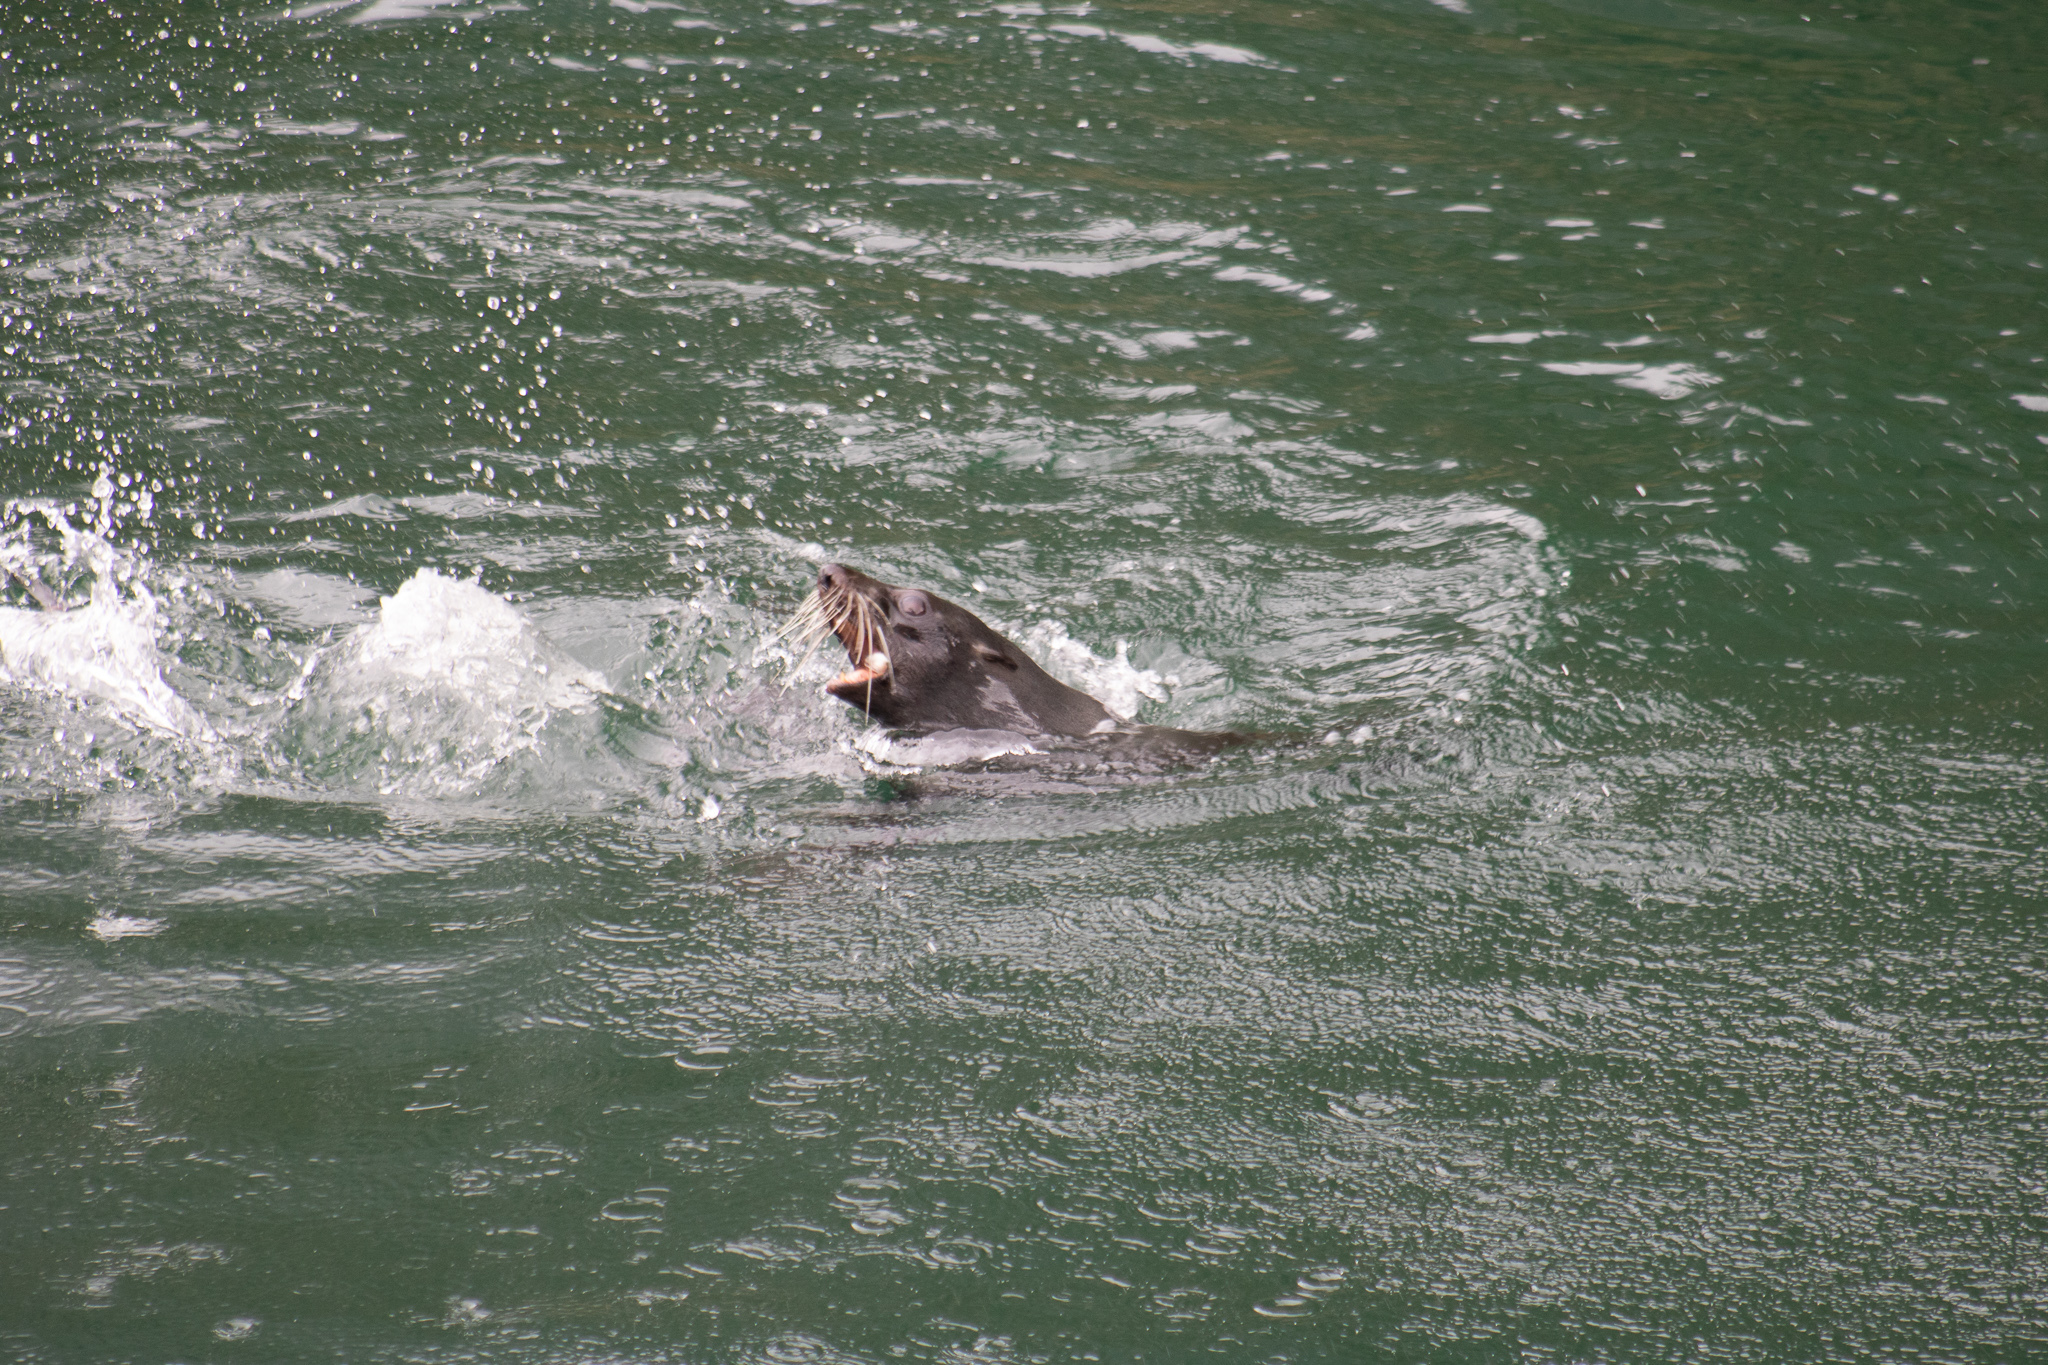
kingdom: Animalia
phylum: Chordata
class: Mammalia
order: Carnivora
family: Otariidae
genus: Arctocephalus
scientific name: Arctocephalus forsteri
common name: New zealand fur seal
